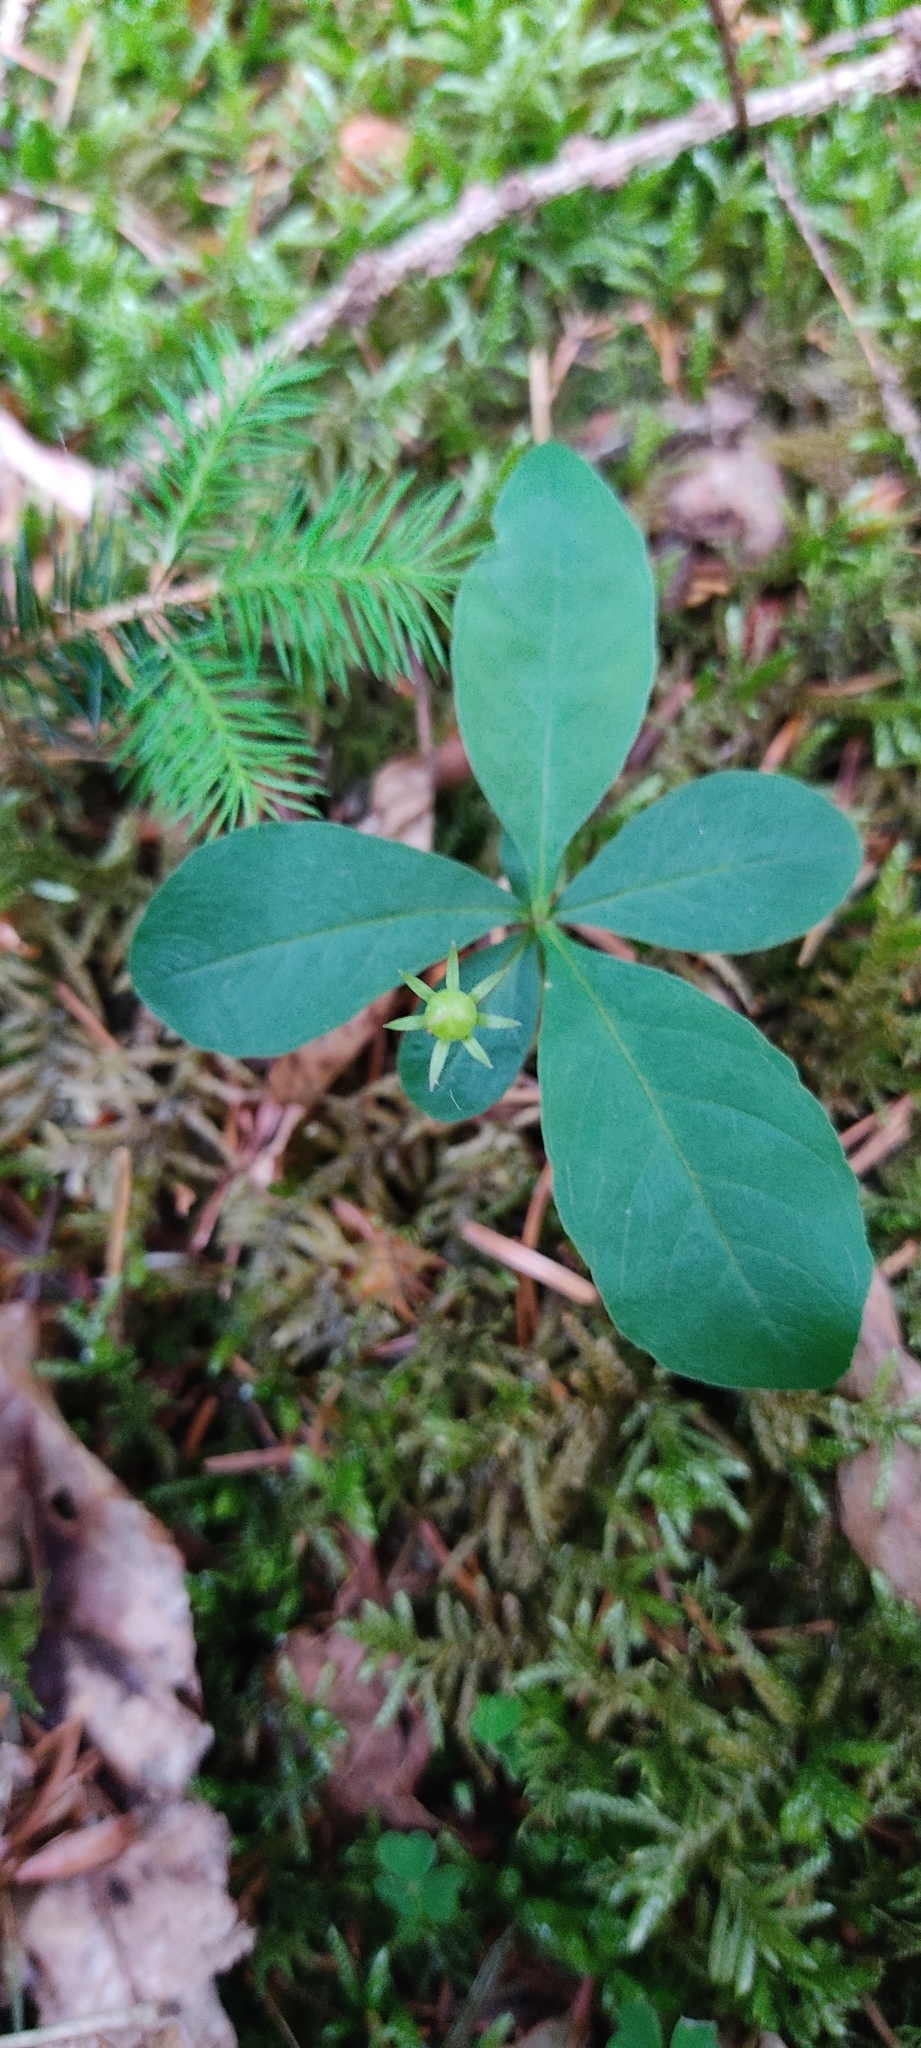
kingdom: Plantae
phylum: Tracheophyta
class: Magnoliopsida
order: Ericales
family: Primulaceae
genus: Lysimachia
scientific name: Lysimachia europaea
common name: Arctic starflower
